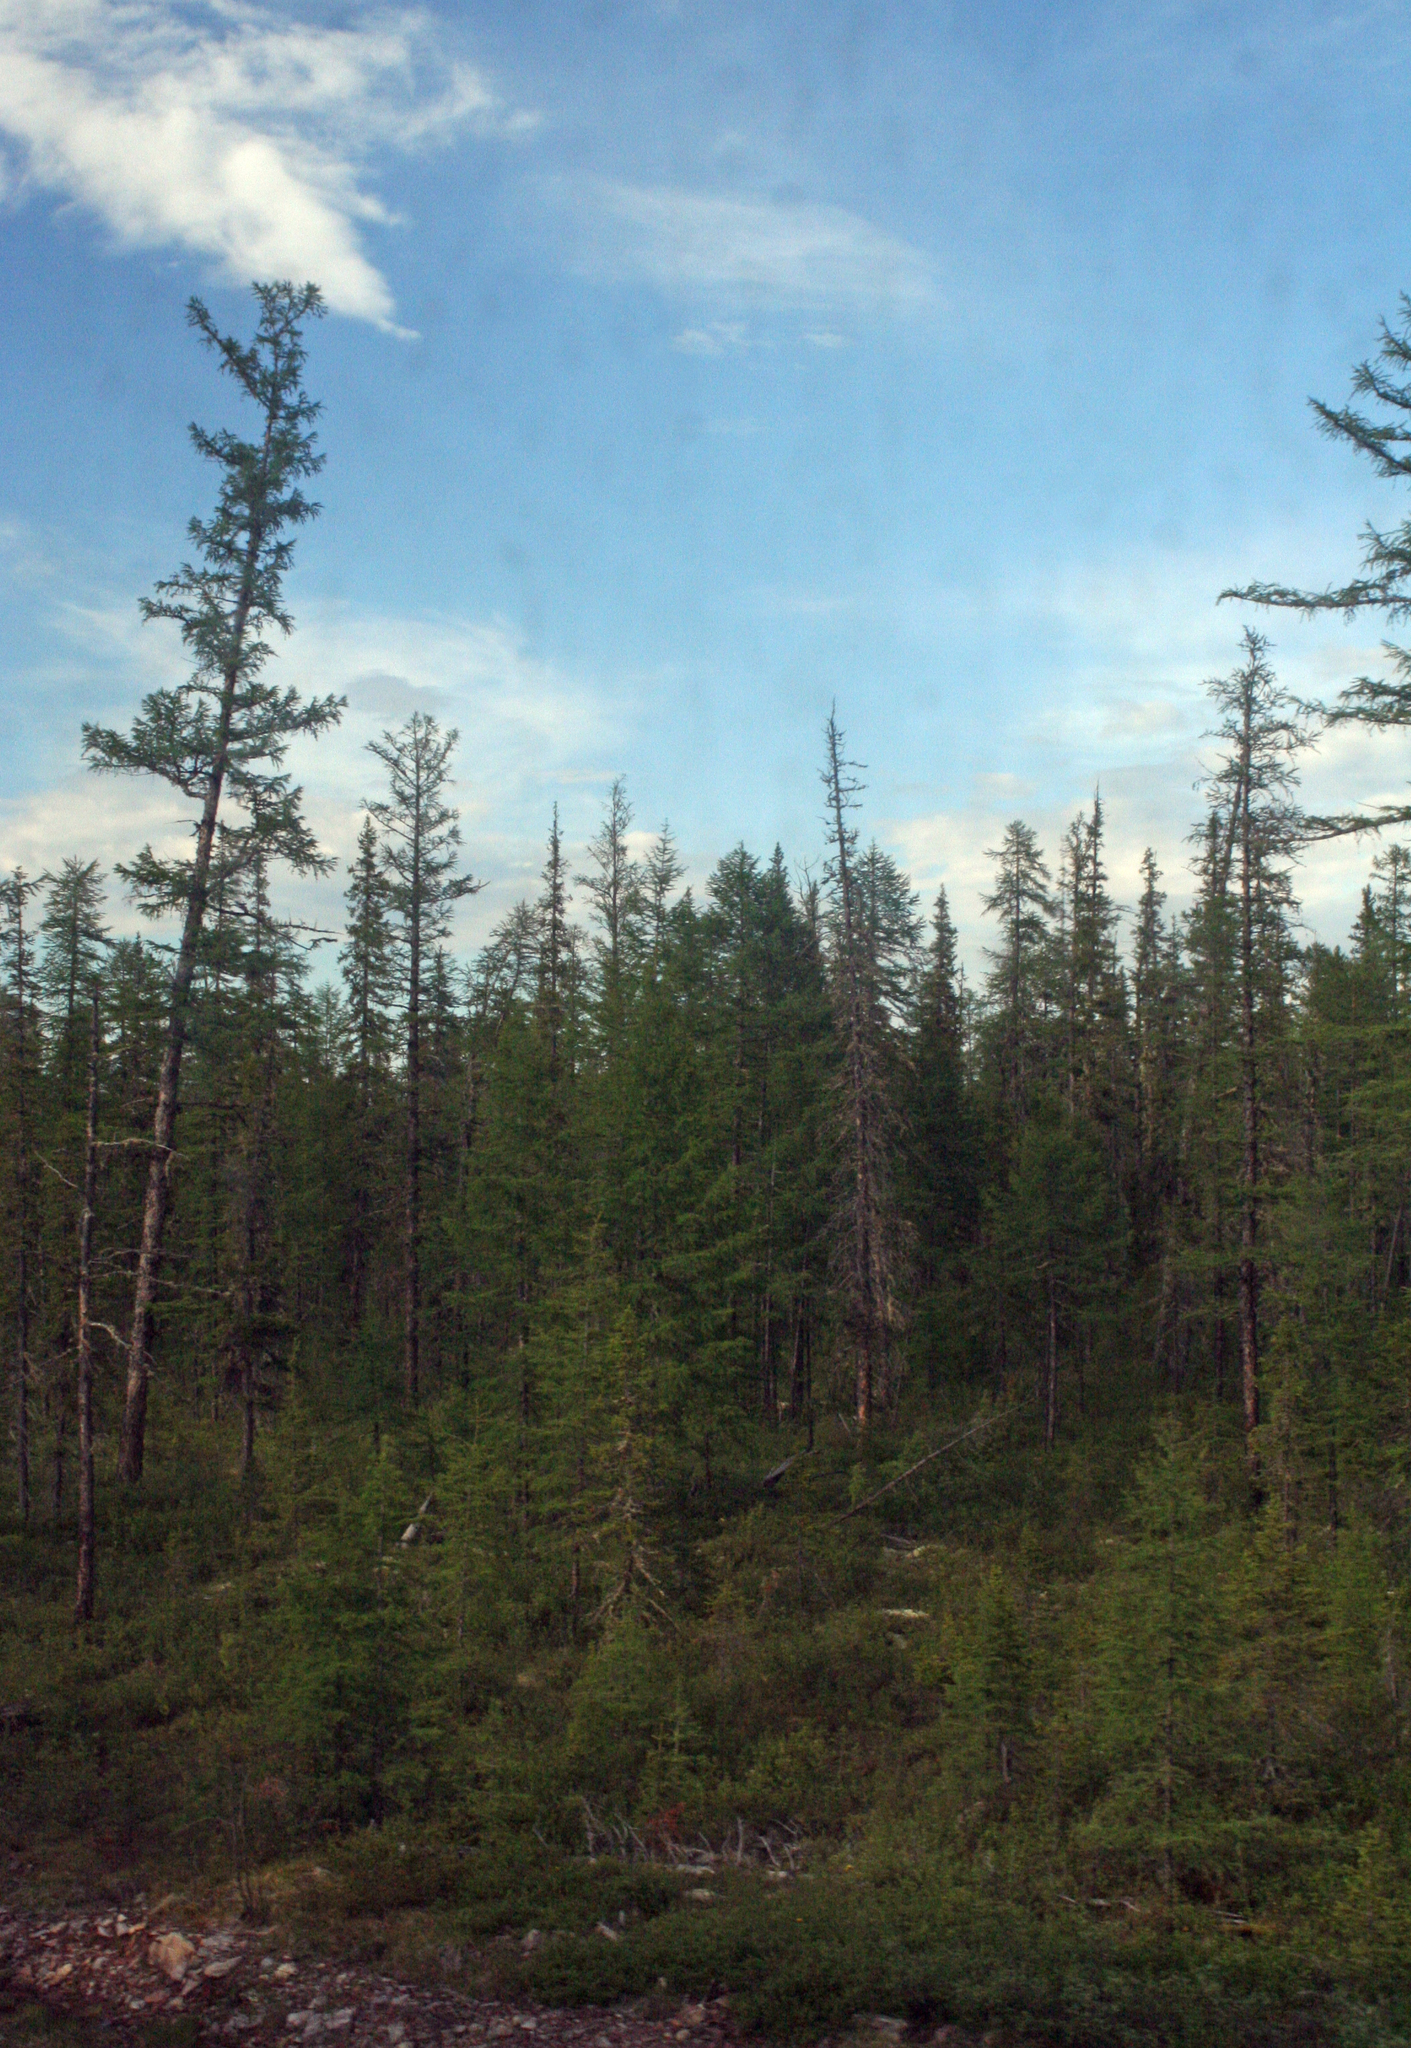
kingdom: Plantae
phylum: Tracheophyta
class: Pinopsida
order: Pinales
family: Pinaceae
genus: Larix
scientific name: Larix gmelinii
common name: Dahurian larch
